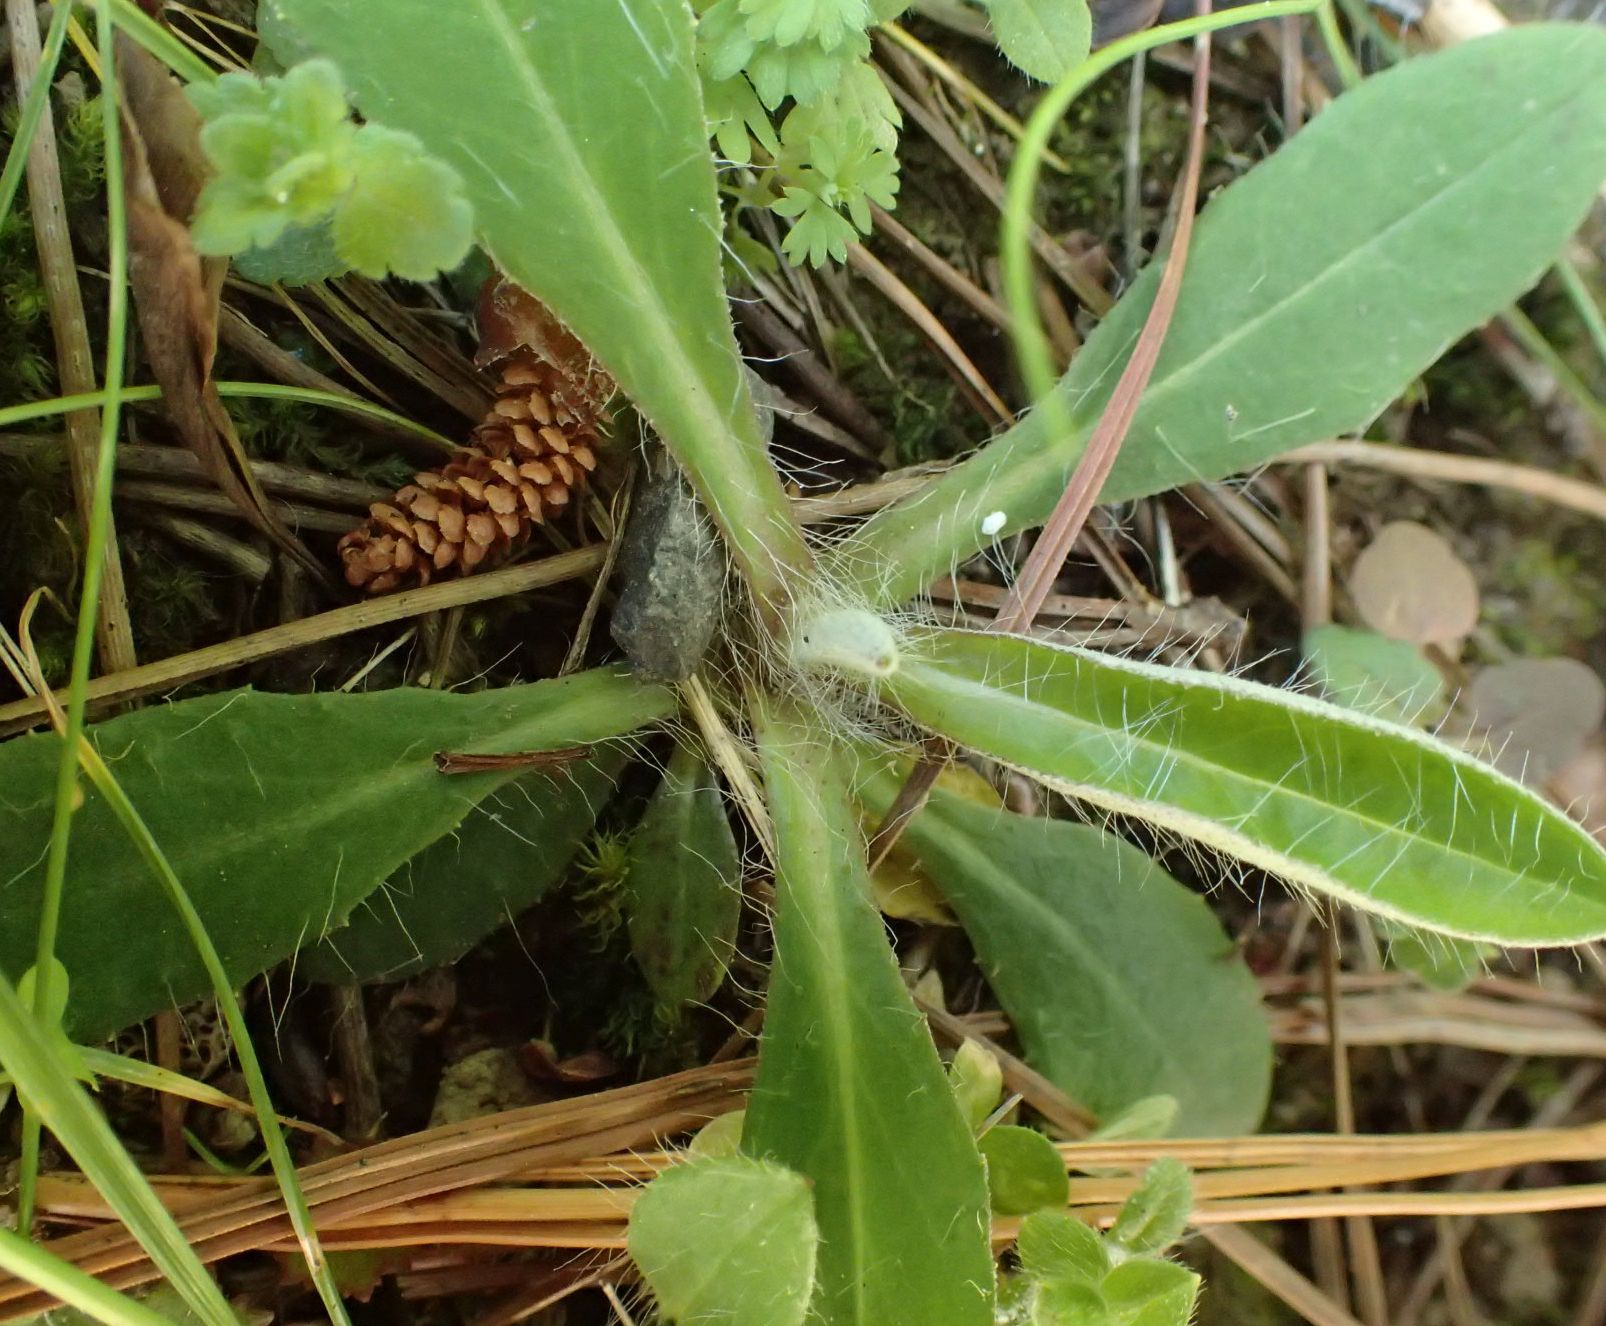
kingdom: Plantae
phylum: Tracheophyta
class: Magnoliopsida
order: Asterales
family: Asteraceae
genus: Pilosella
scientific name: Pilosella officinarum
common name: Mouse-ear hawkweed
